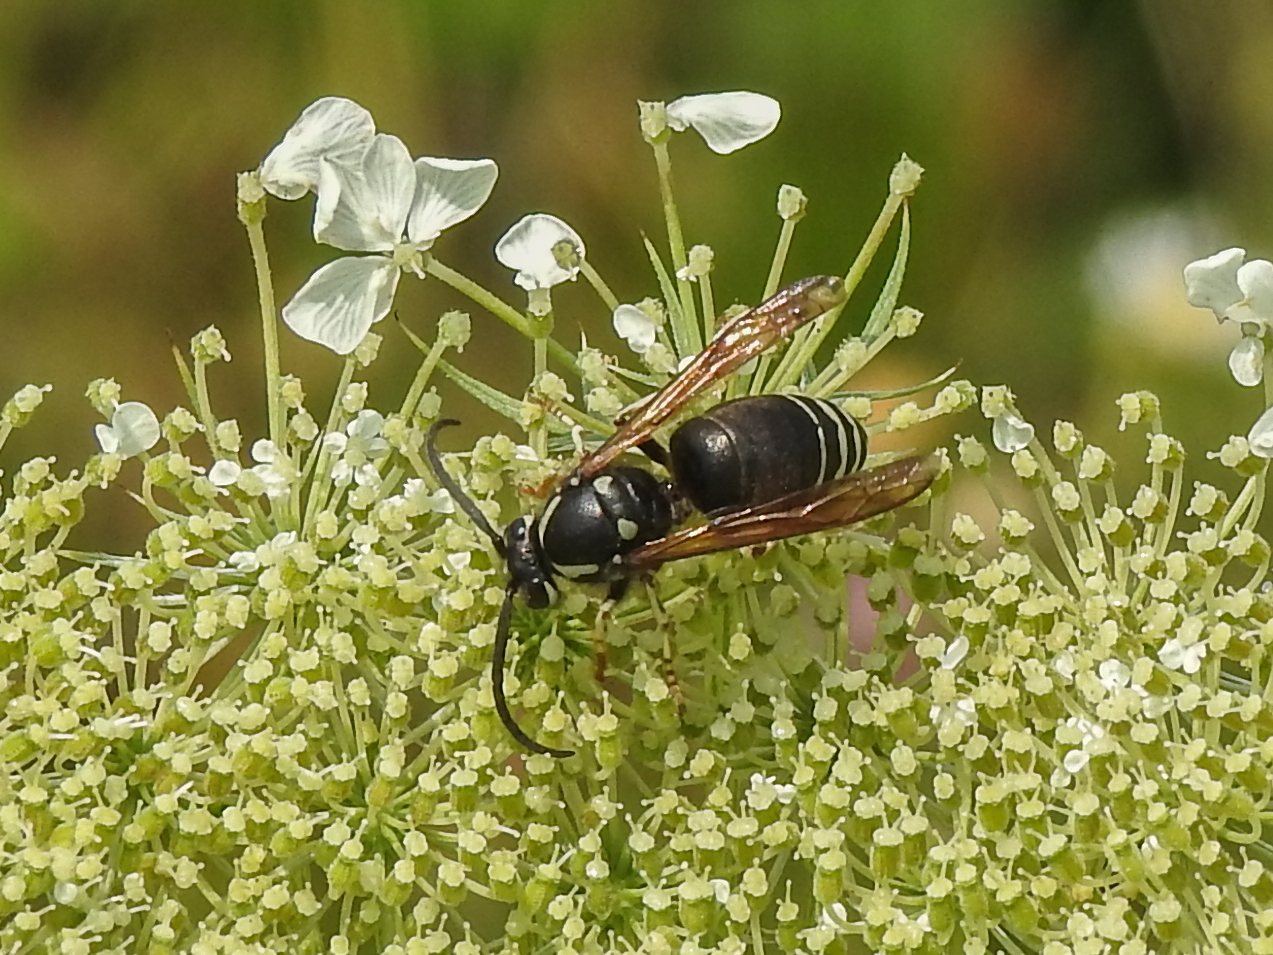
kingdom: Animalia
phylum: Arthropoda
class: Insecta
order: Hymenoptera
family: Vespidae
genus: Dolichovespula
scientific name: Dolichovespula adulterina
